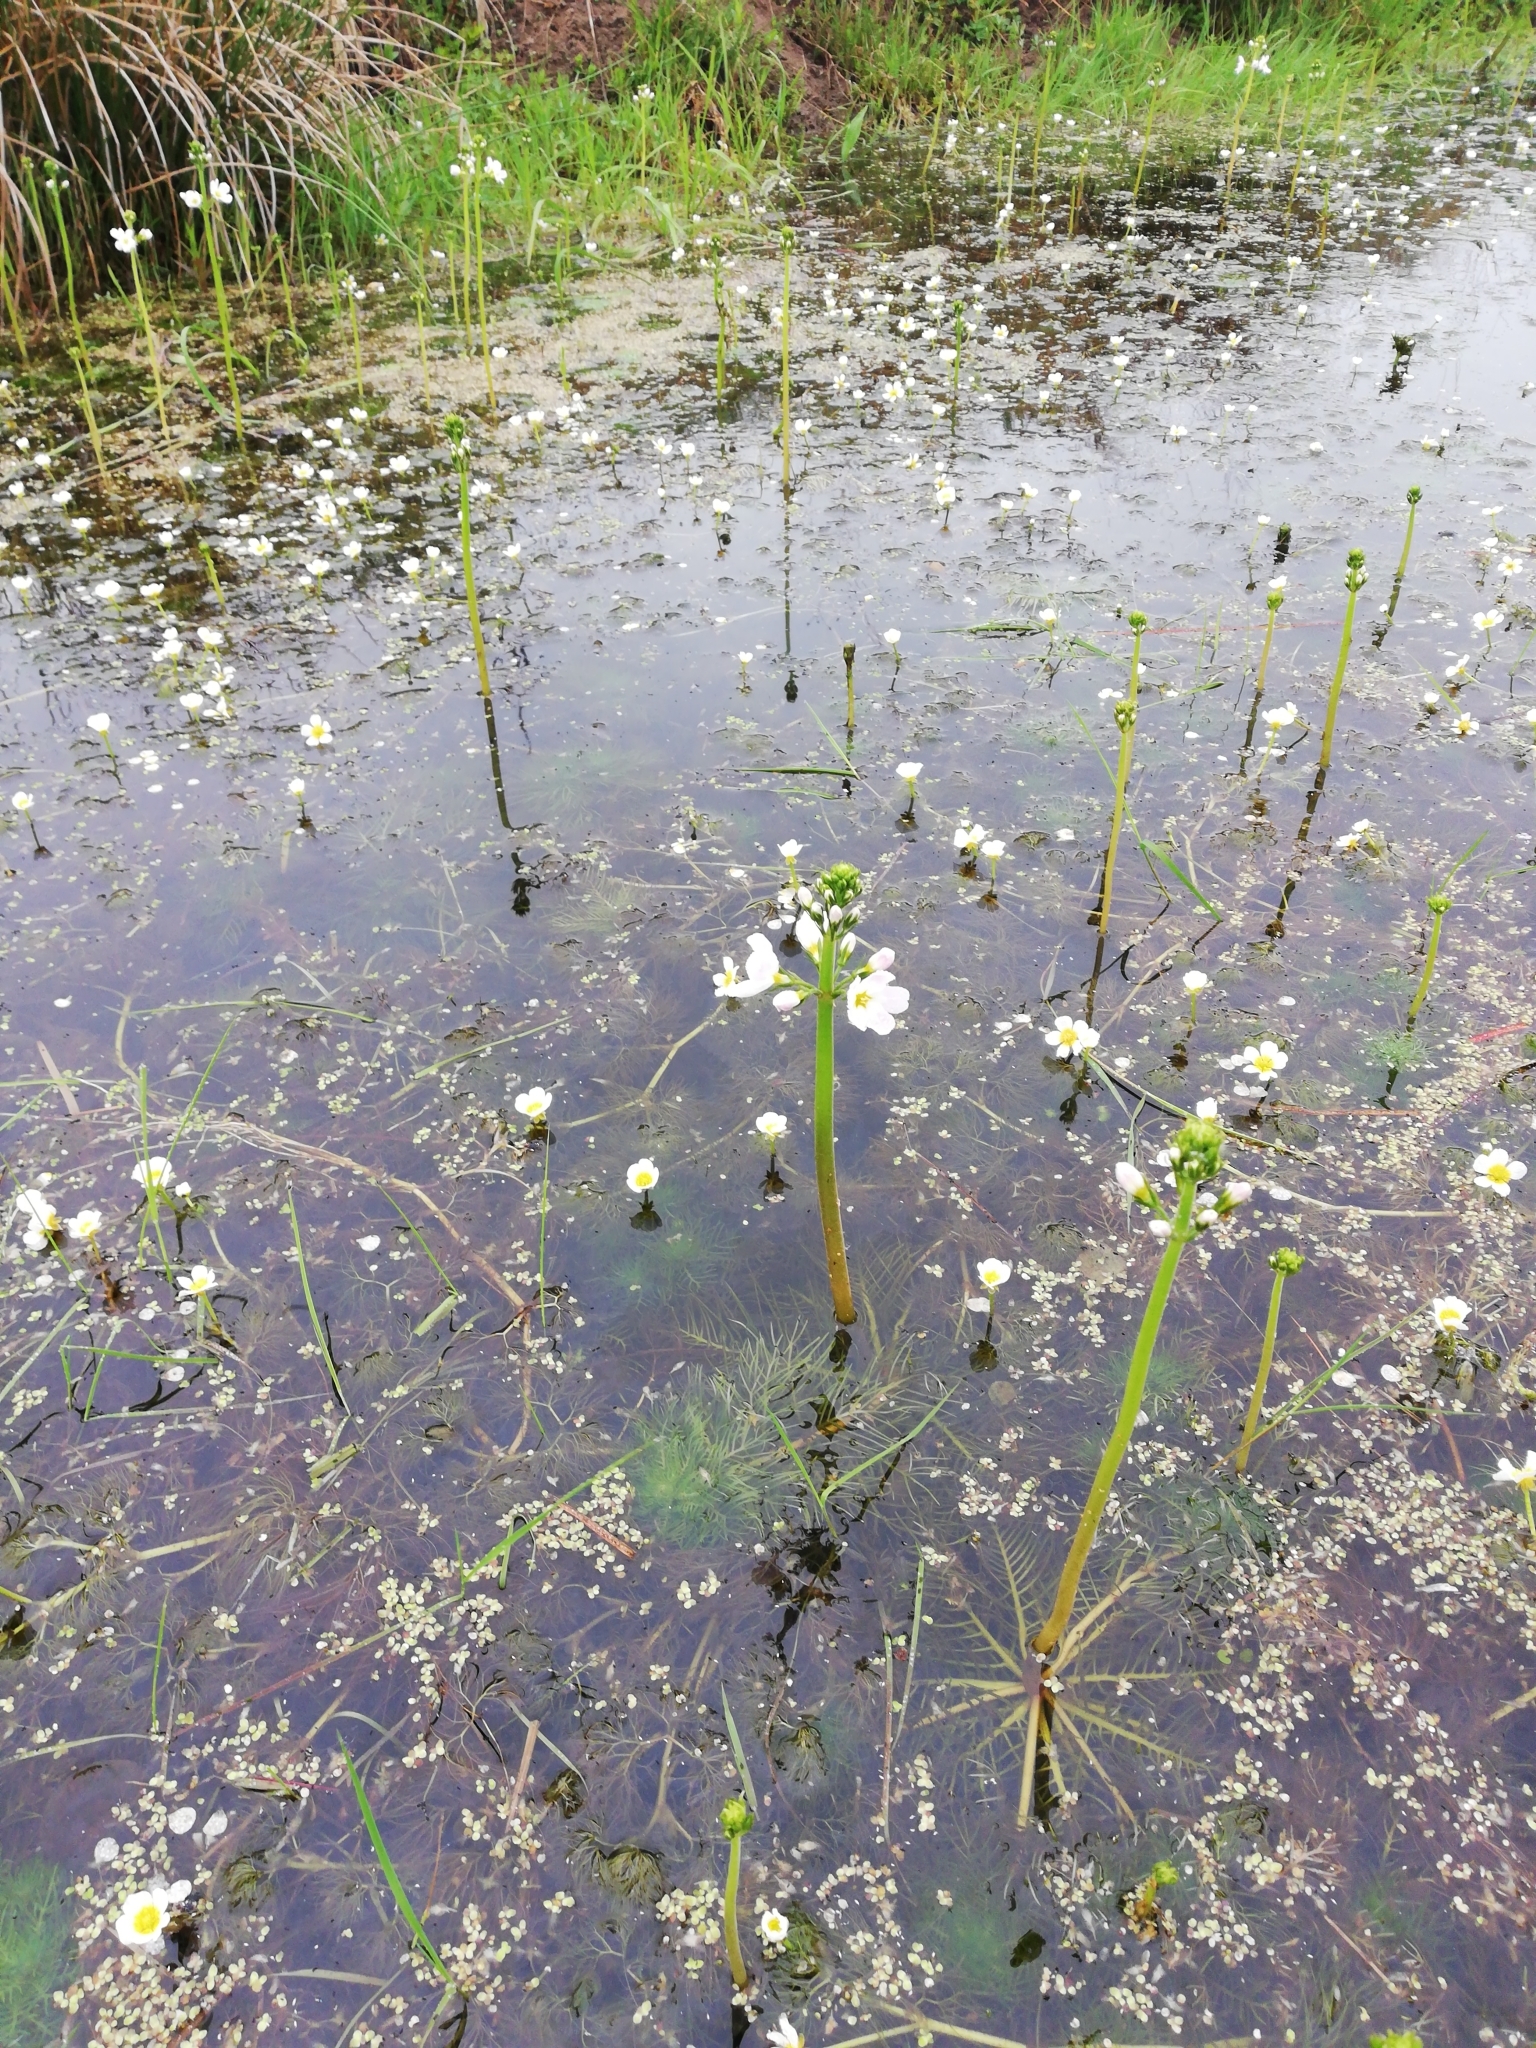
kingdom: Plantae
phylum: Tracheophyta
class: Magnoliopsida
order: Ericales
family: Primulaceae
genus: Hottonia
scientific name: Hottonia palustris
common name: Water-violet
